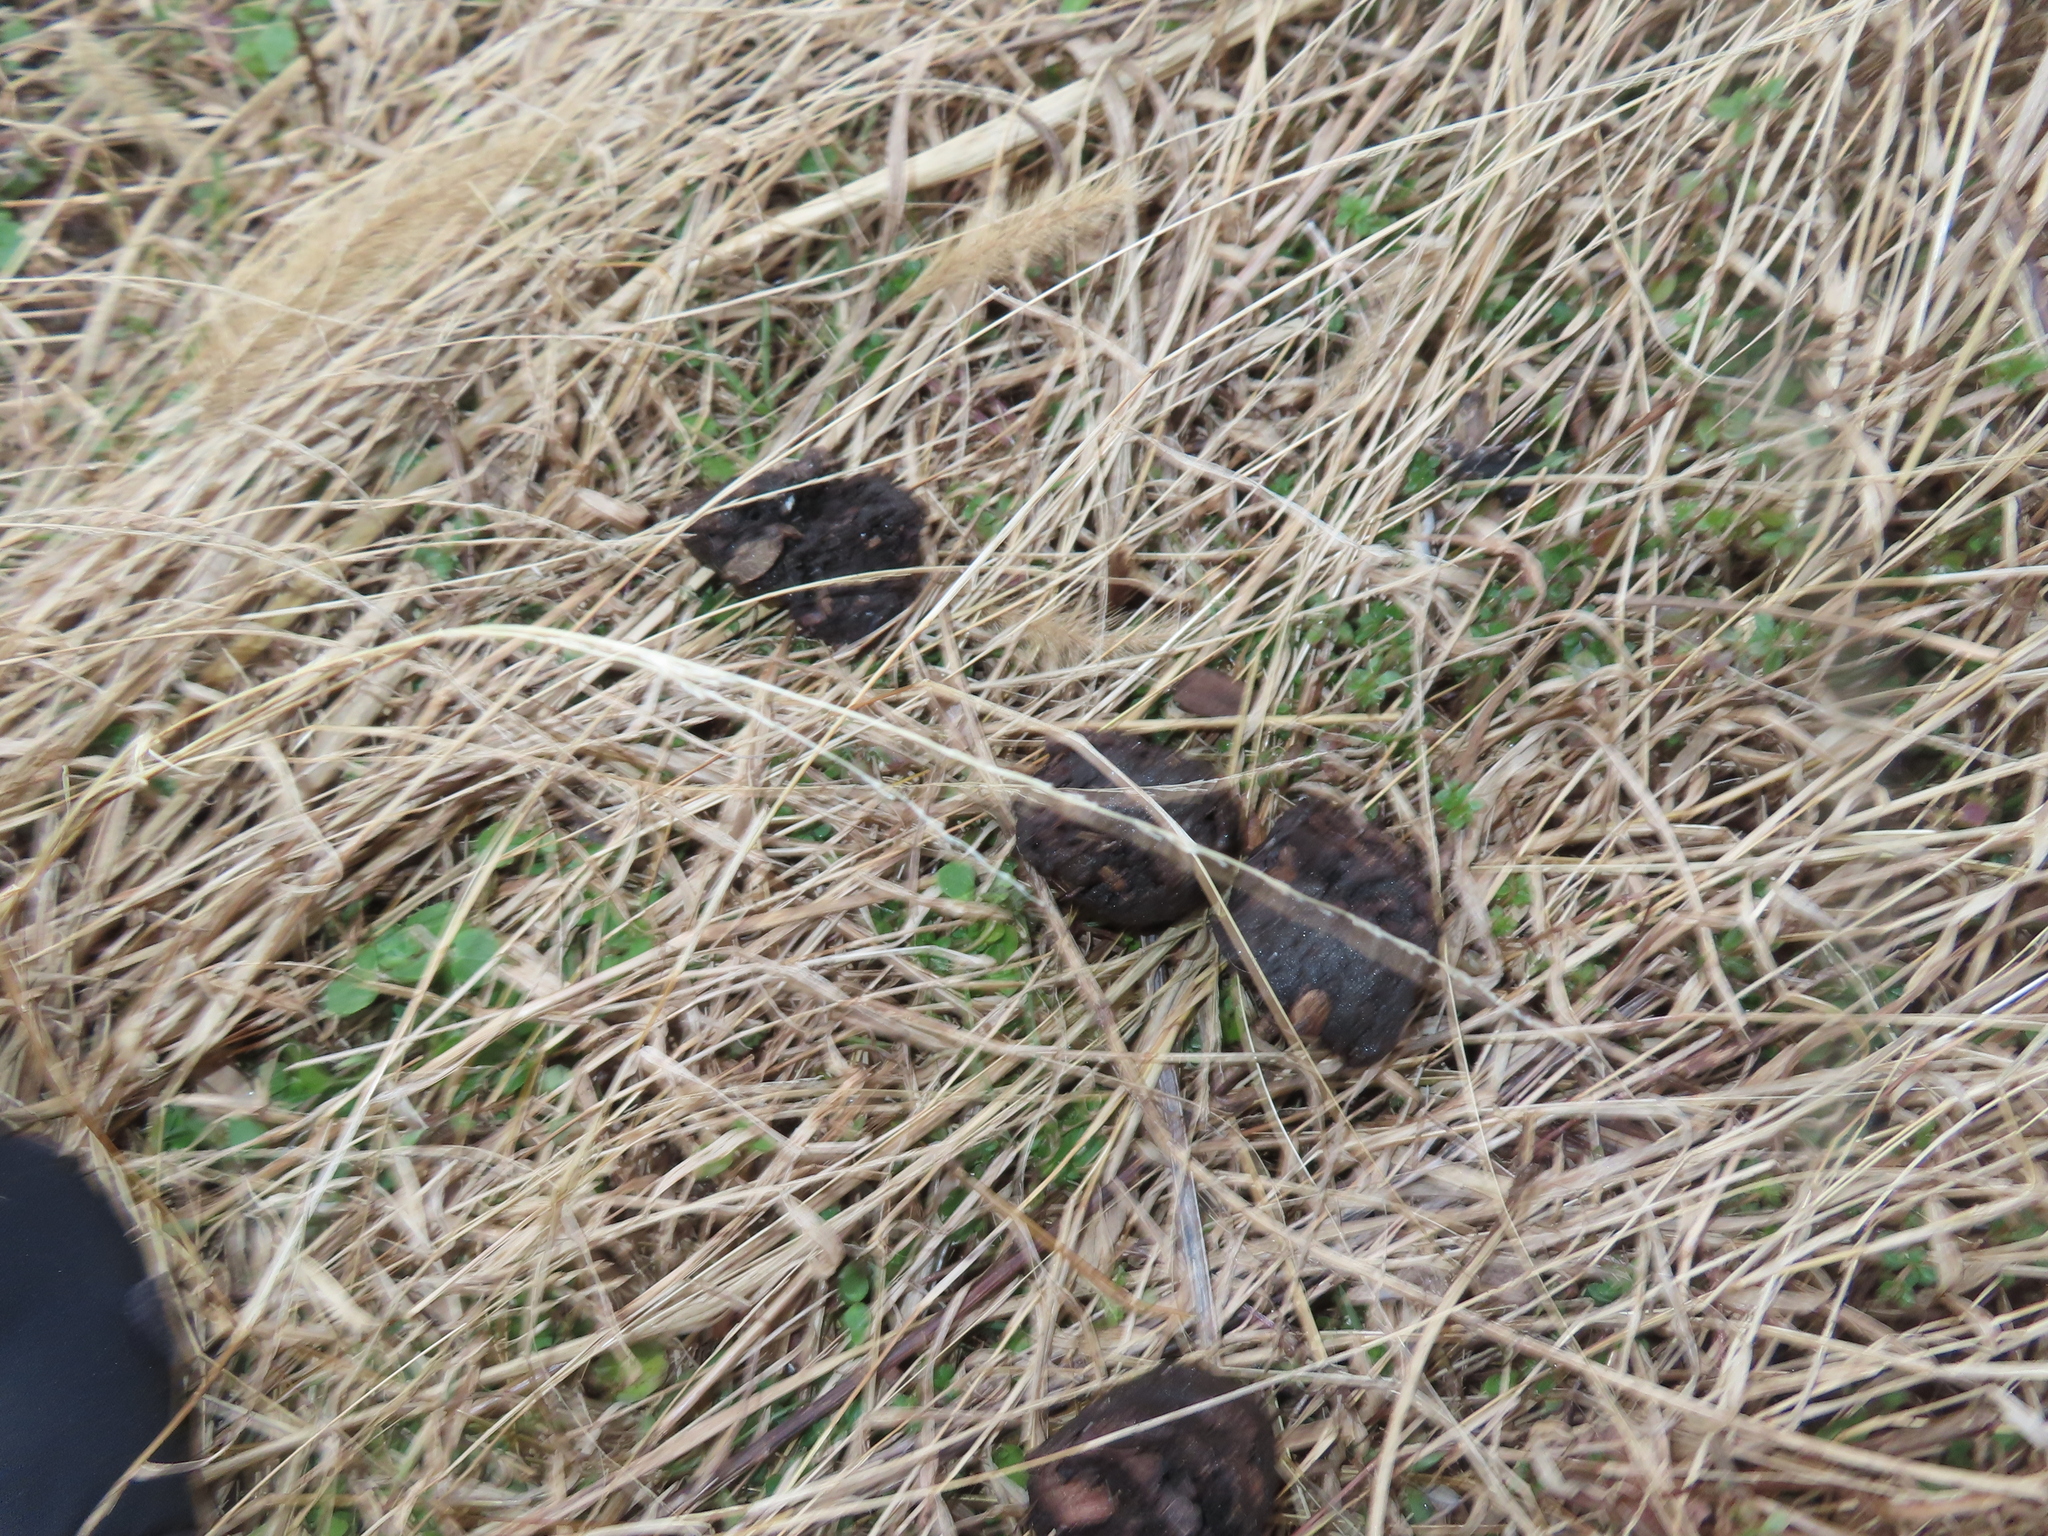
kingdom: Plantae
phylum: Tracheophyta
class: Magnoliopsida
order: Fagales
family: Juglandaceae
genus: Juglans
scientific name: Juglans nigra
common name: Black walnut
